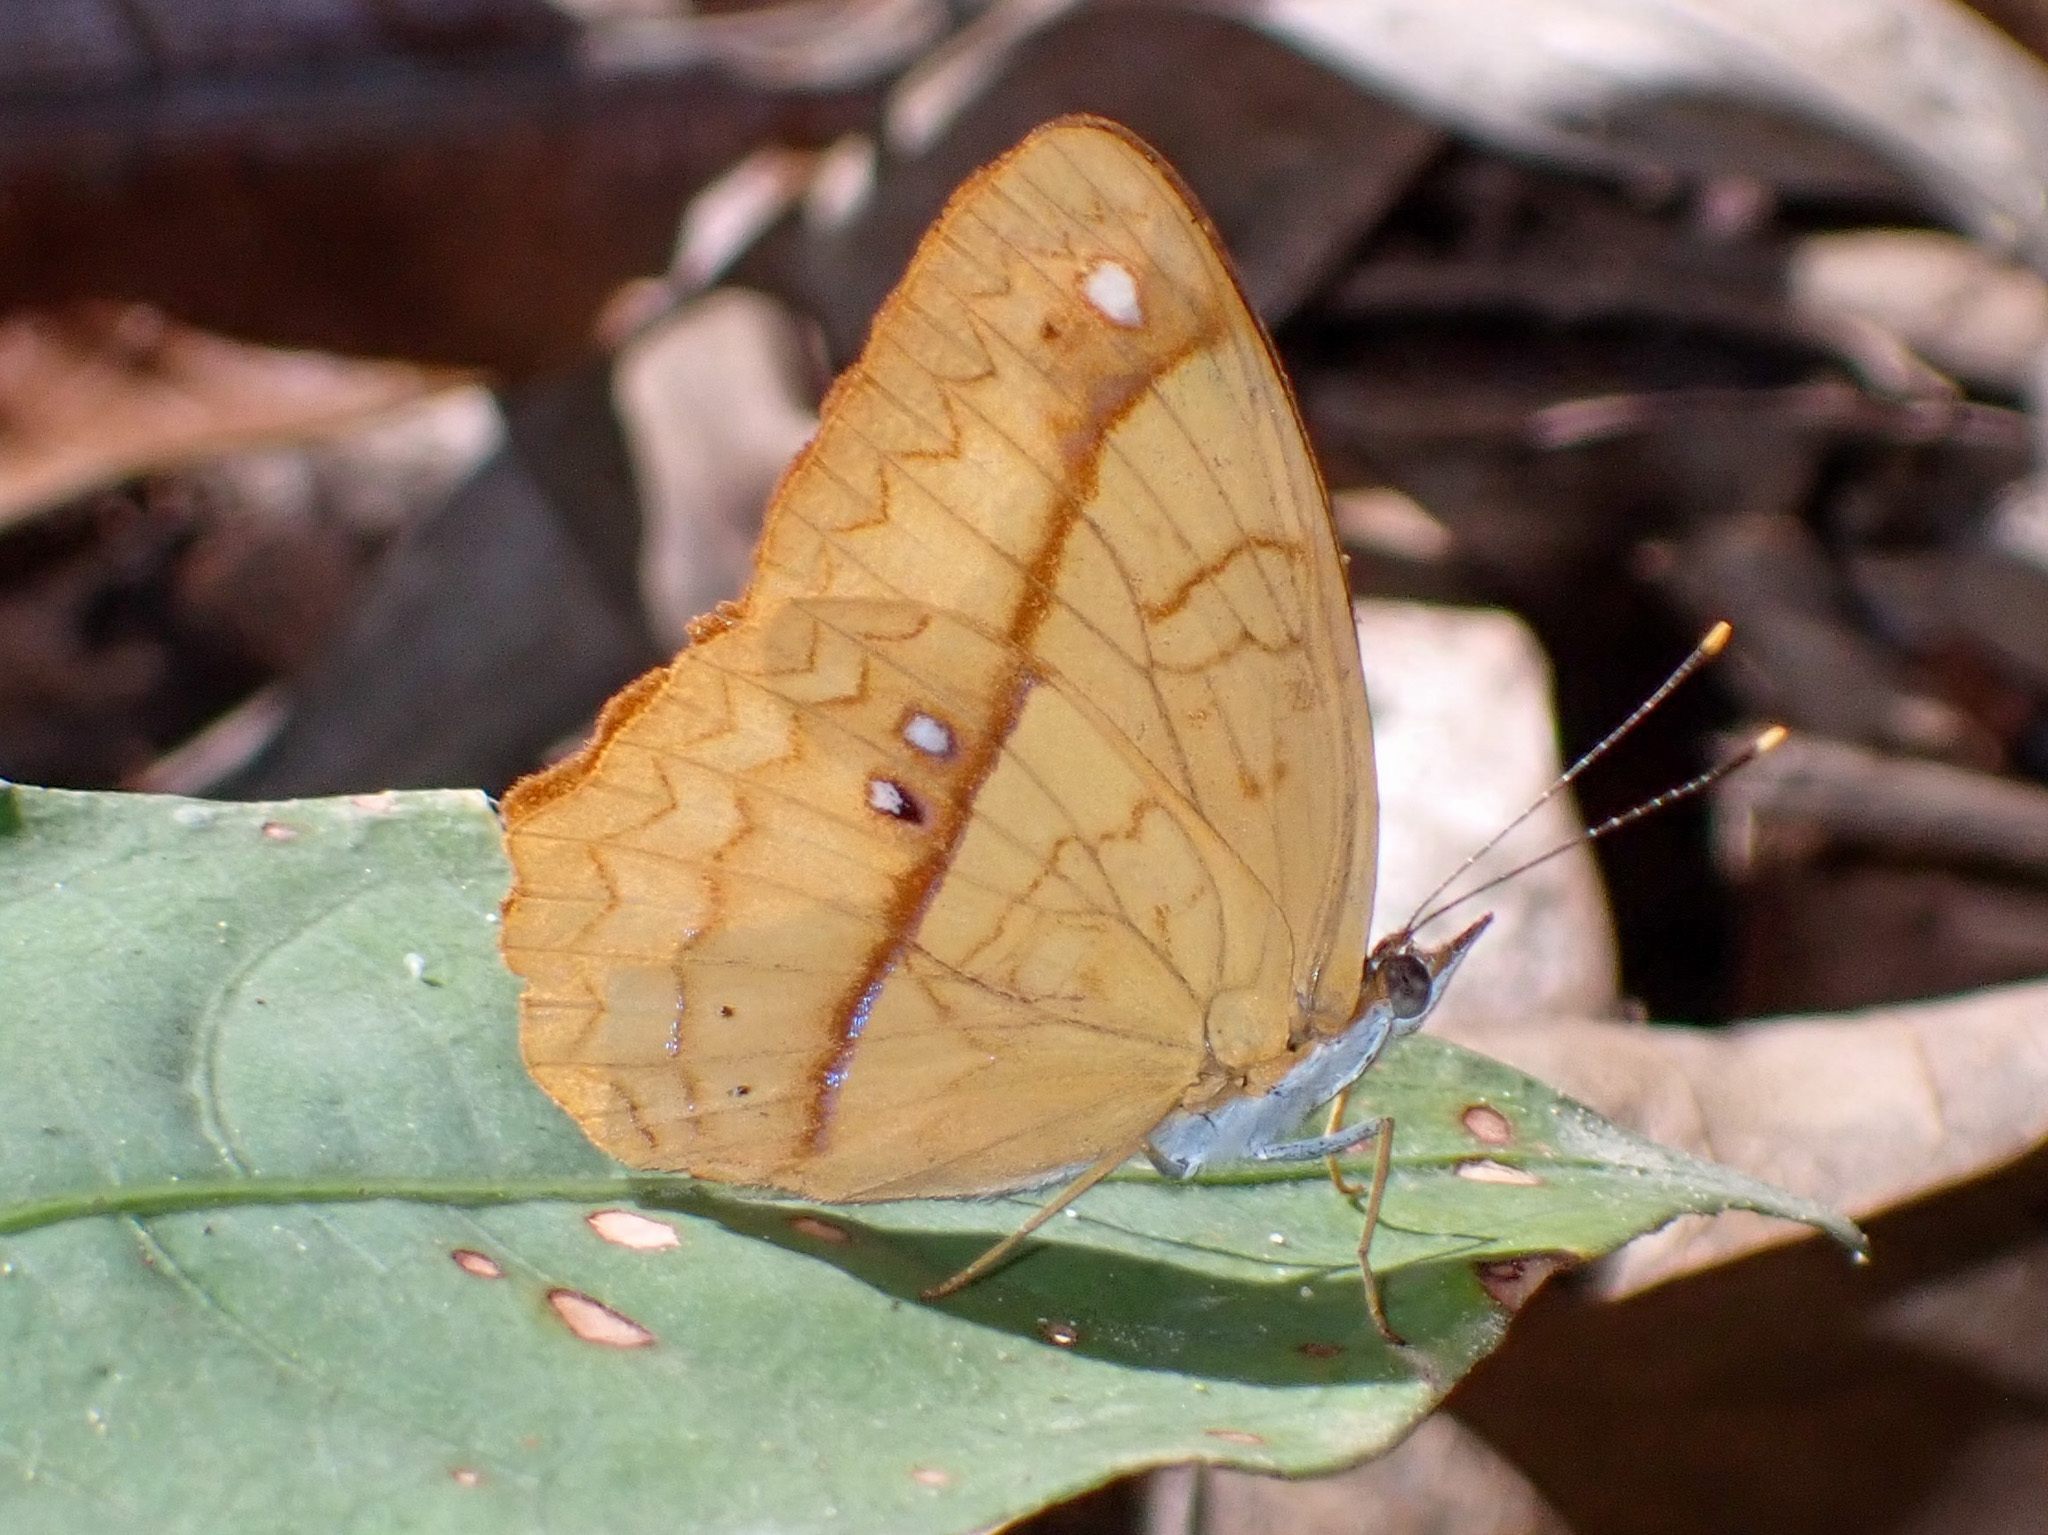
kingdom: Animalia
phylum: Arthropoda
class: Insecta
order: Lepidoptera
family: Nymphalidae
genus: Nica
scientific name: Nica flavilla
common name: Mandarin nica
